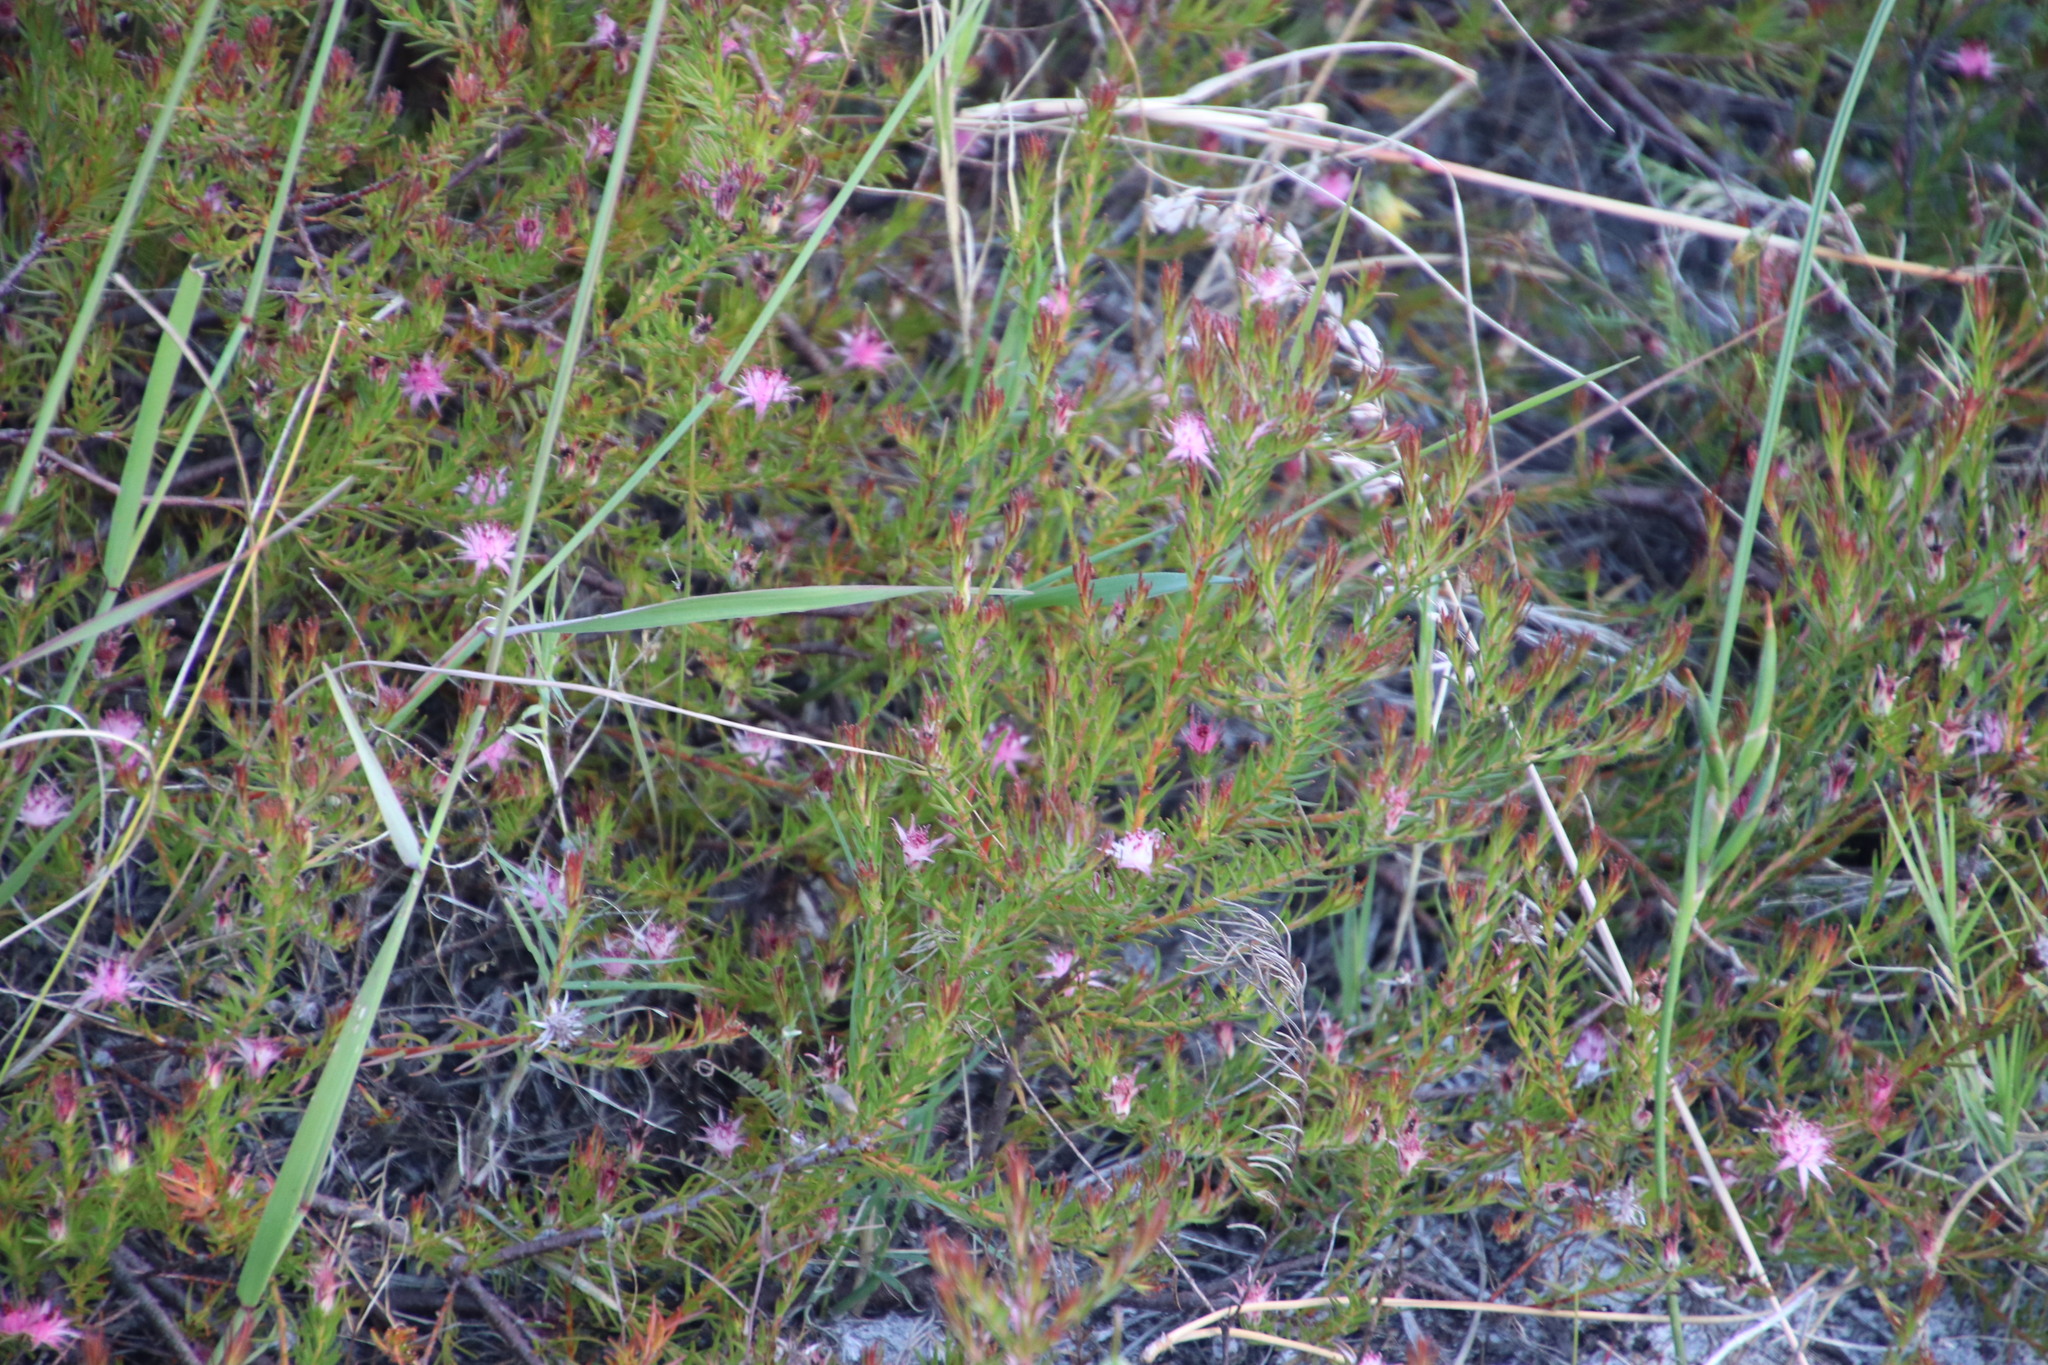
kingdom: Plantae
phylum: Tracheophyta
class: Magnoliopsida
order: Proteales
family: Proteaceae
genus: Diastella
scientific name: Diastella proteoides
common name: Flats silkypuff
